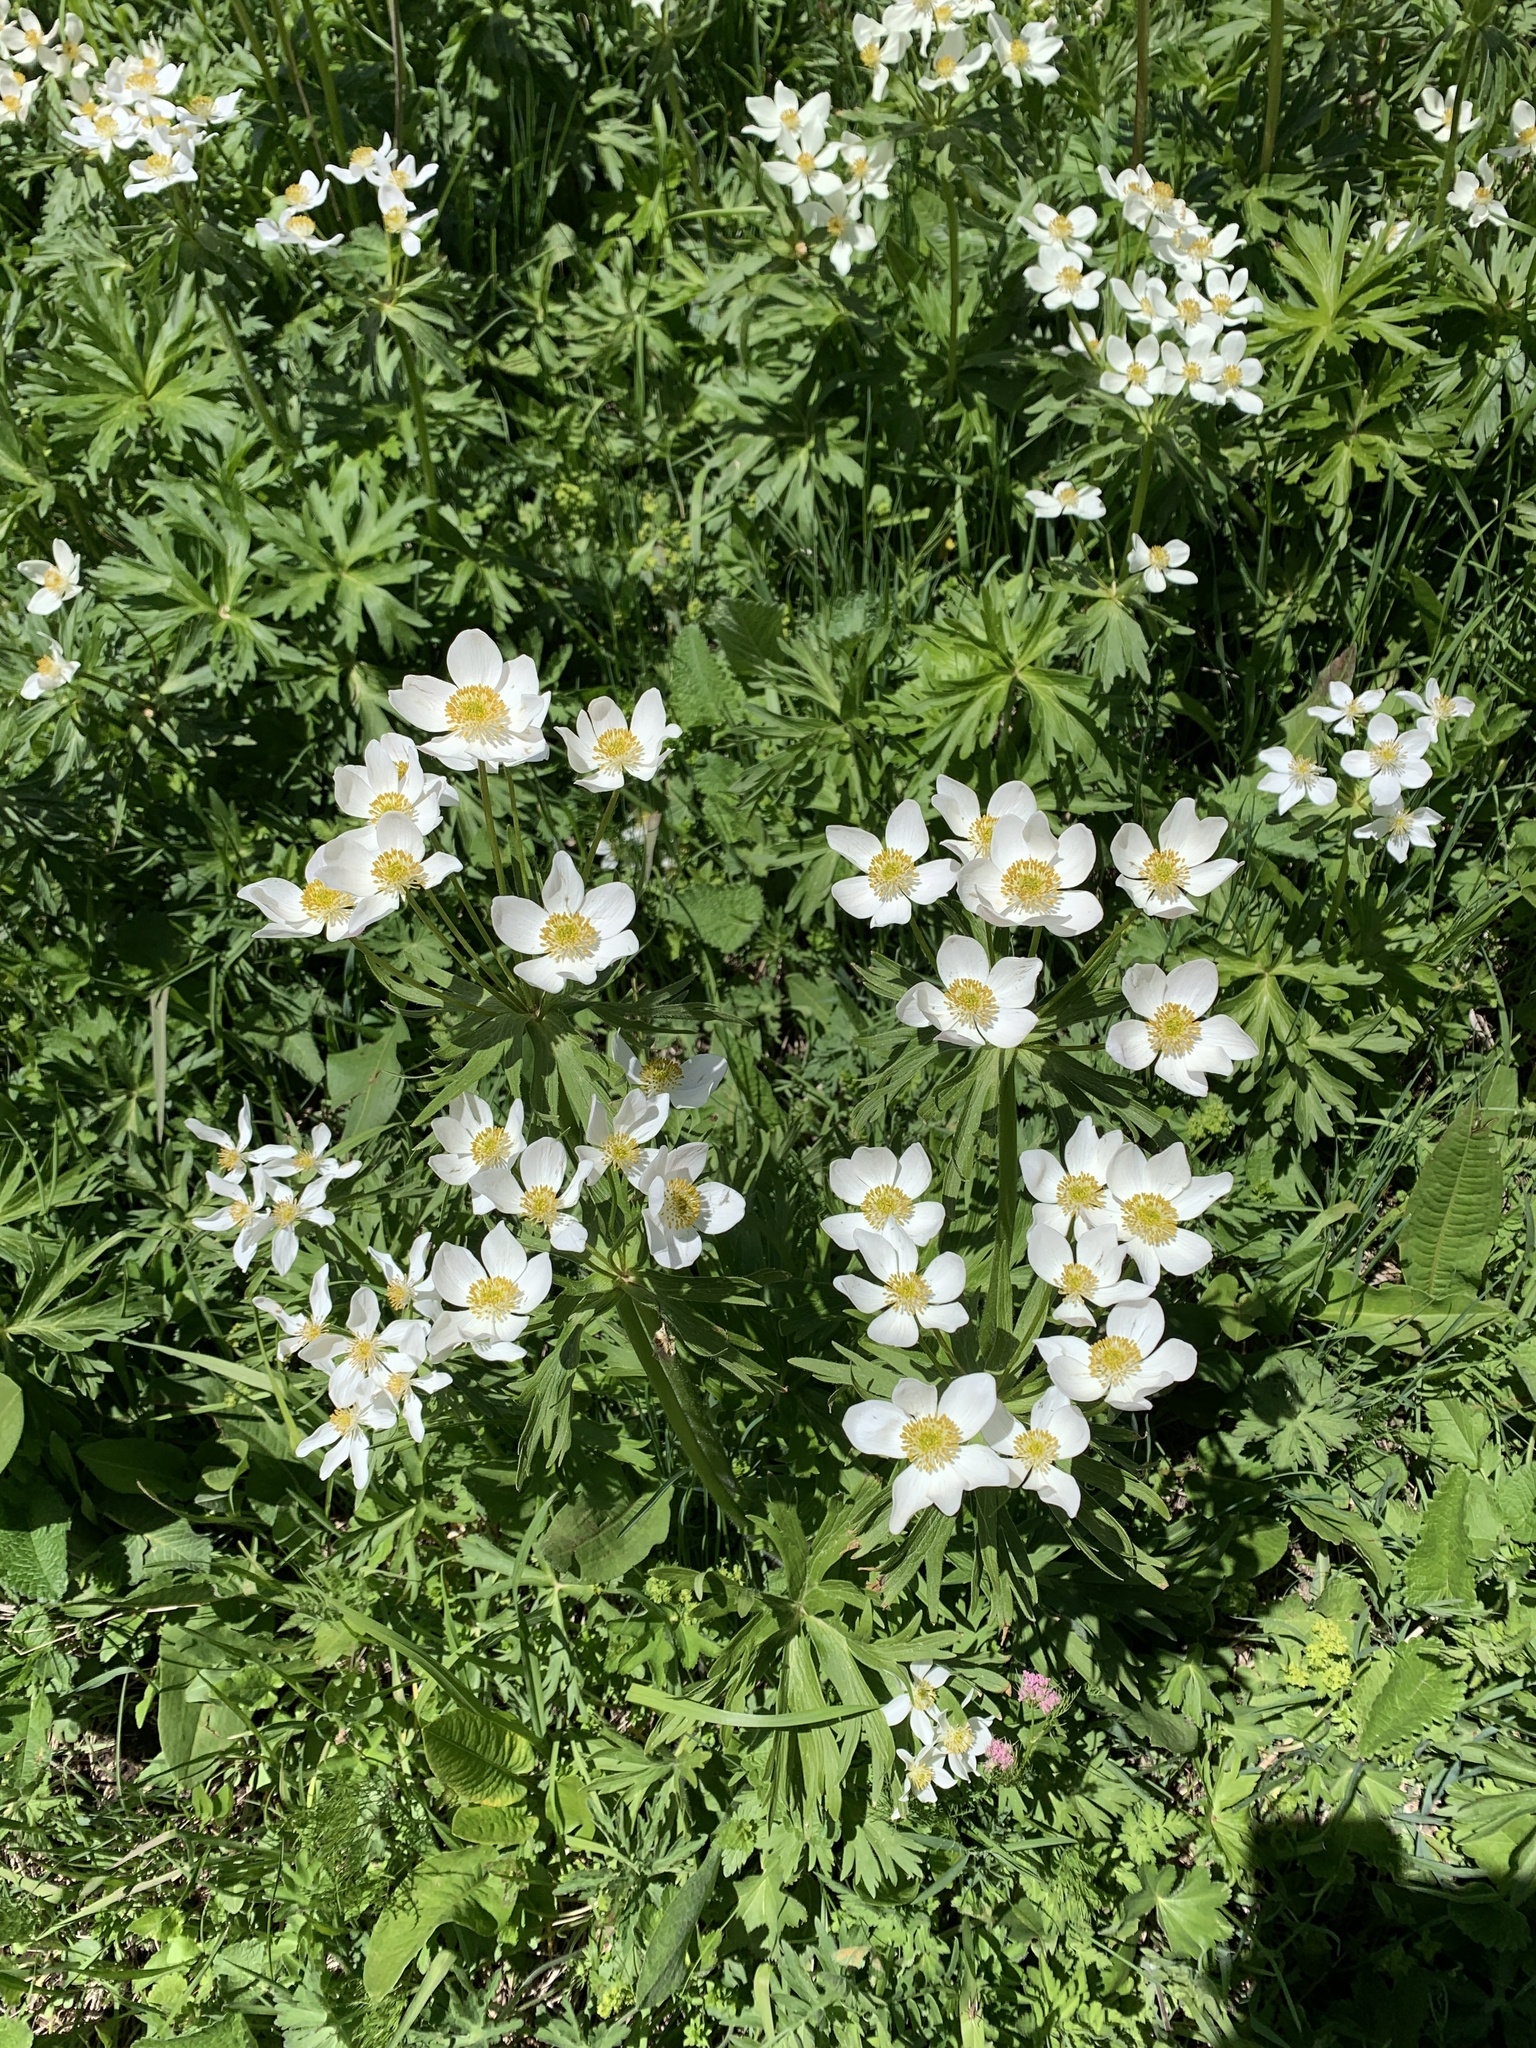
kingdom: Plantae
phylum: Tracheophyta
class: Magnoliopsida
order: Ranunculales
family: Ranunculaceae
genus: Anemonastrum
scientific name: Anemonastrum narcissiflorum
